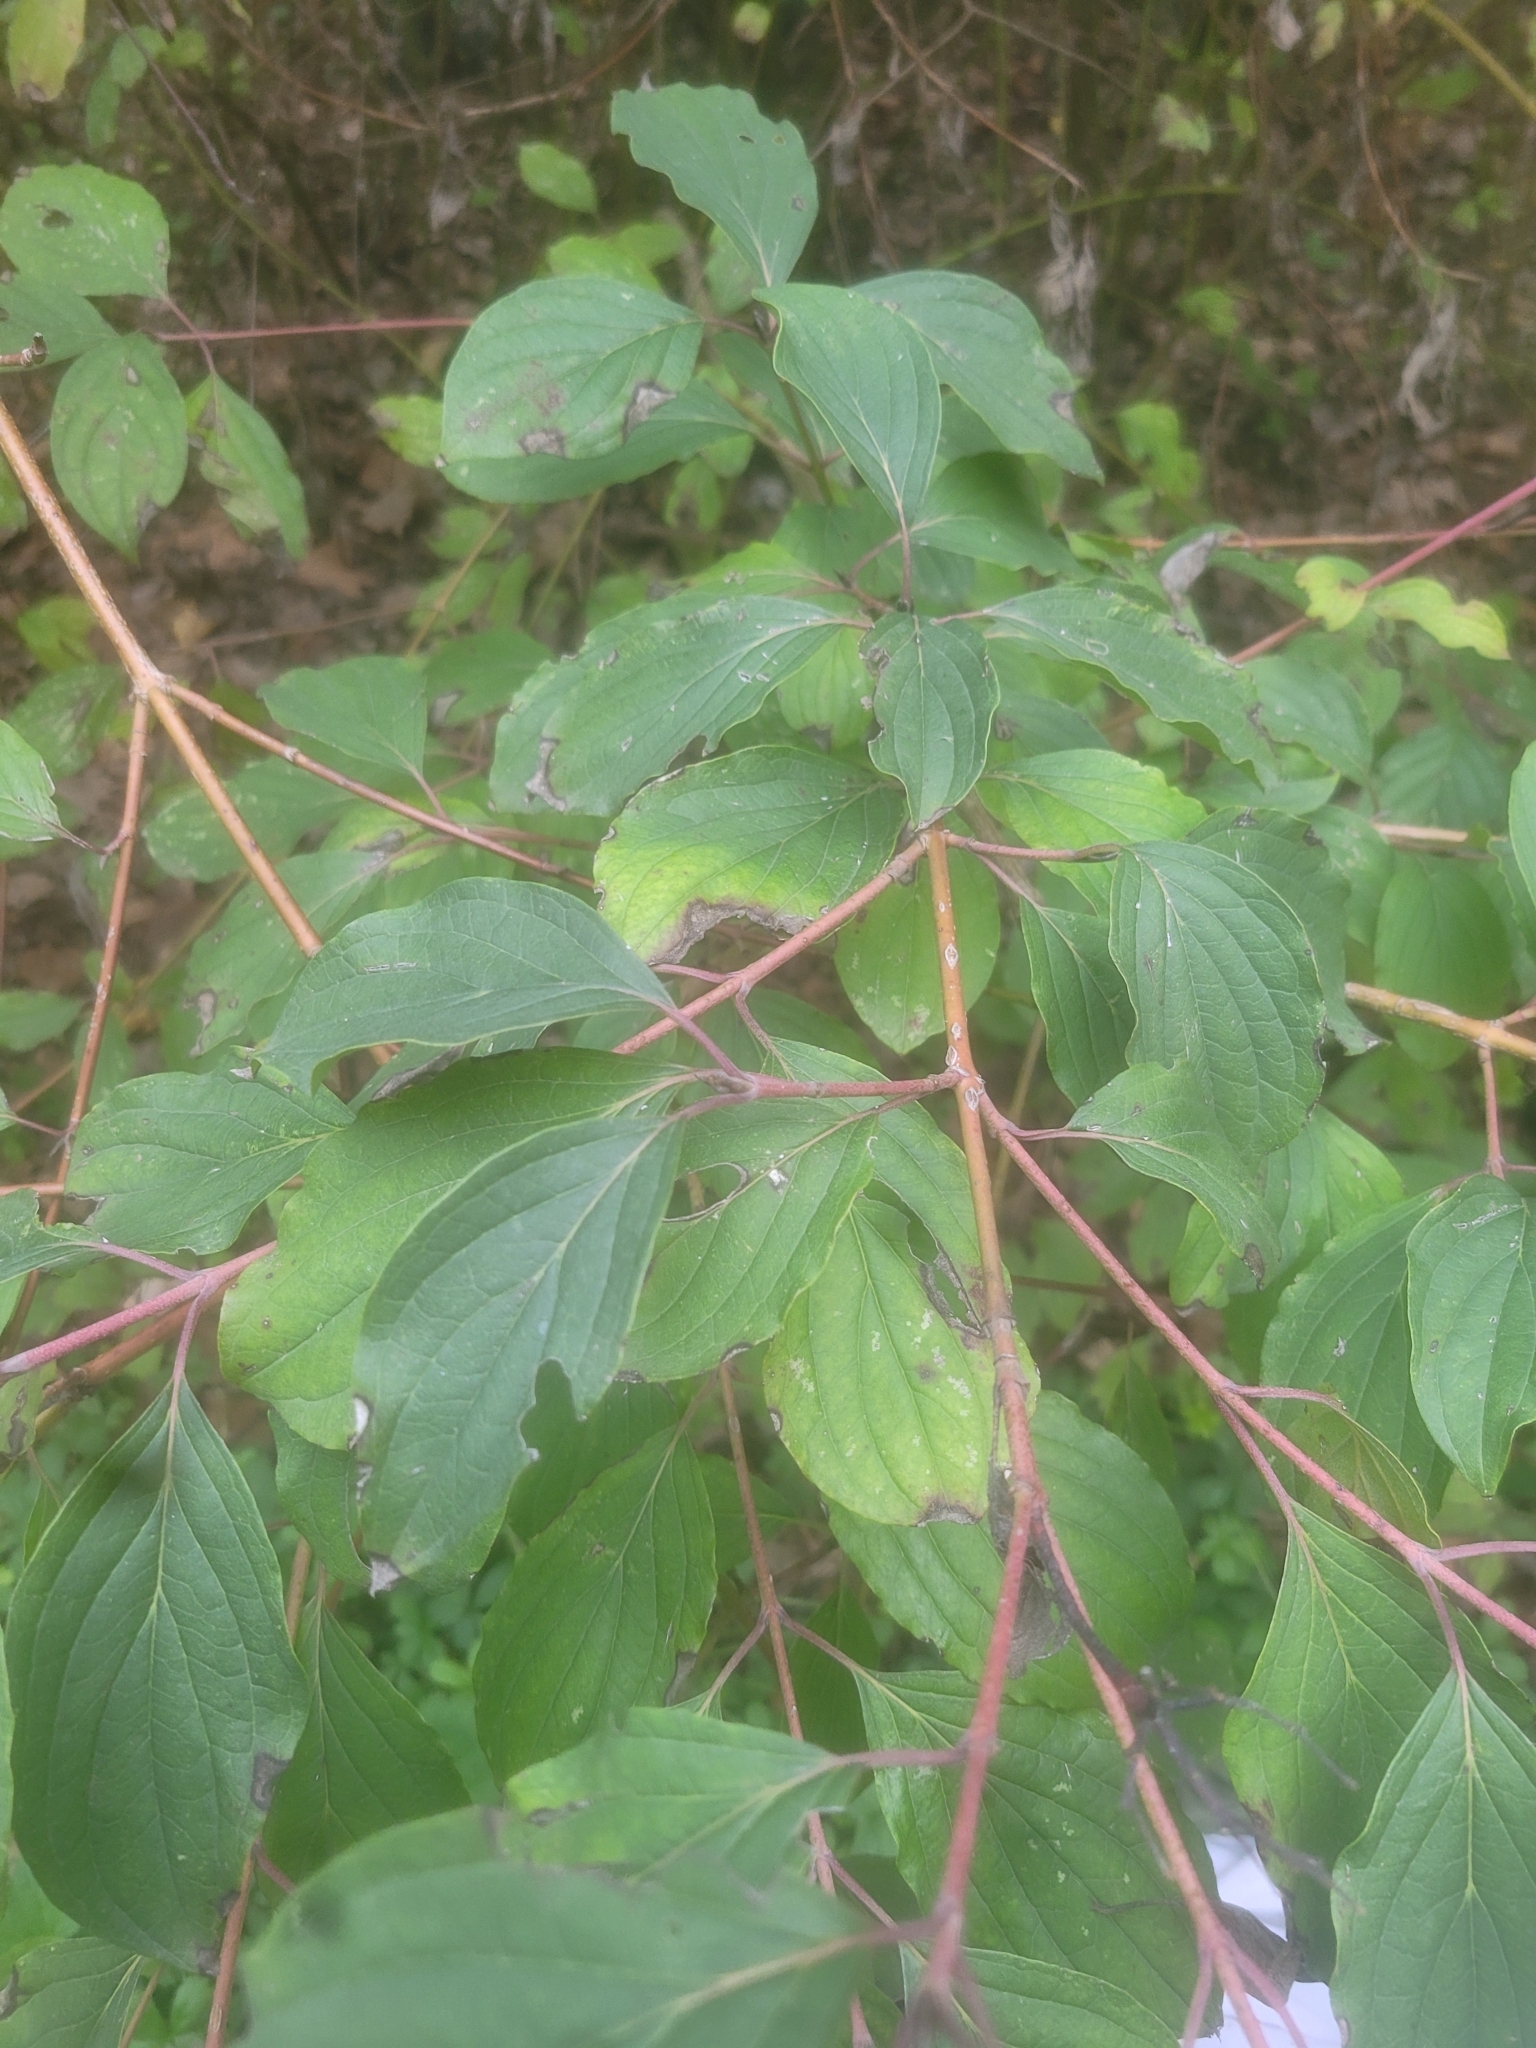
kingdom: Plantae
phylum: Tracheophyta
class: Magnoliopsida
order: Cornales
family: Cornaceae
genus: Cornus
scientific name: Cornus sanguinea
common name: Dogwood
